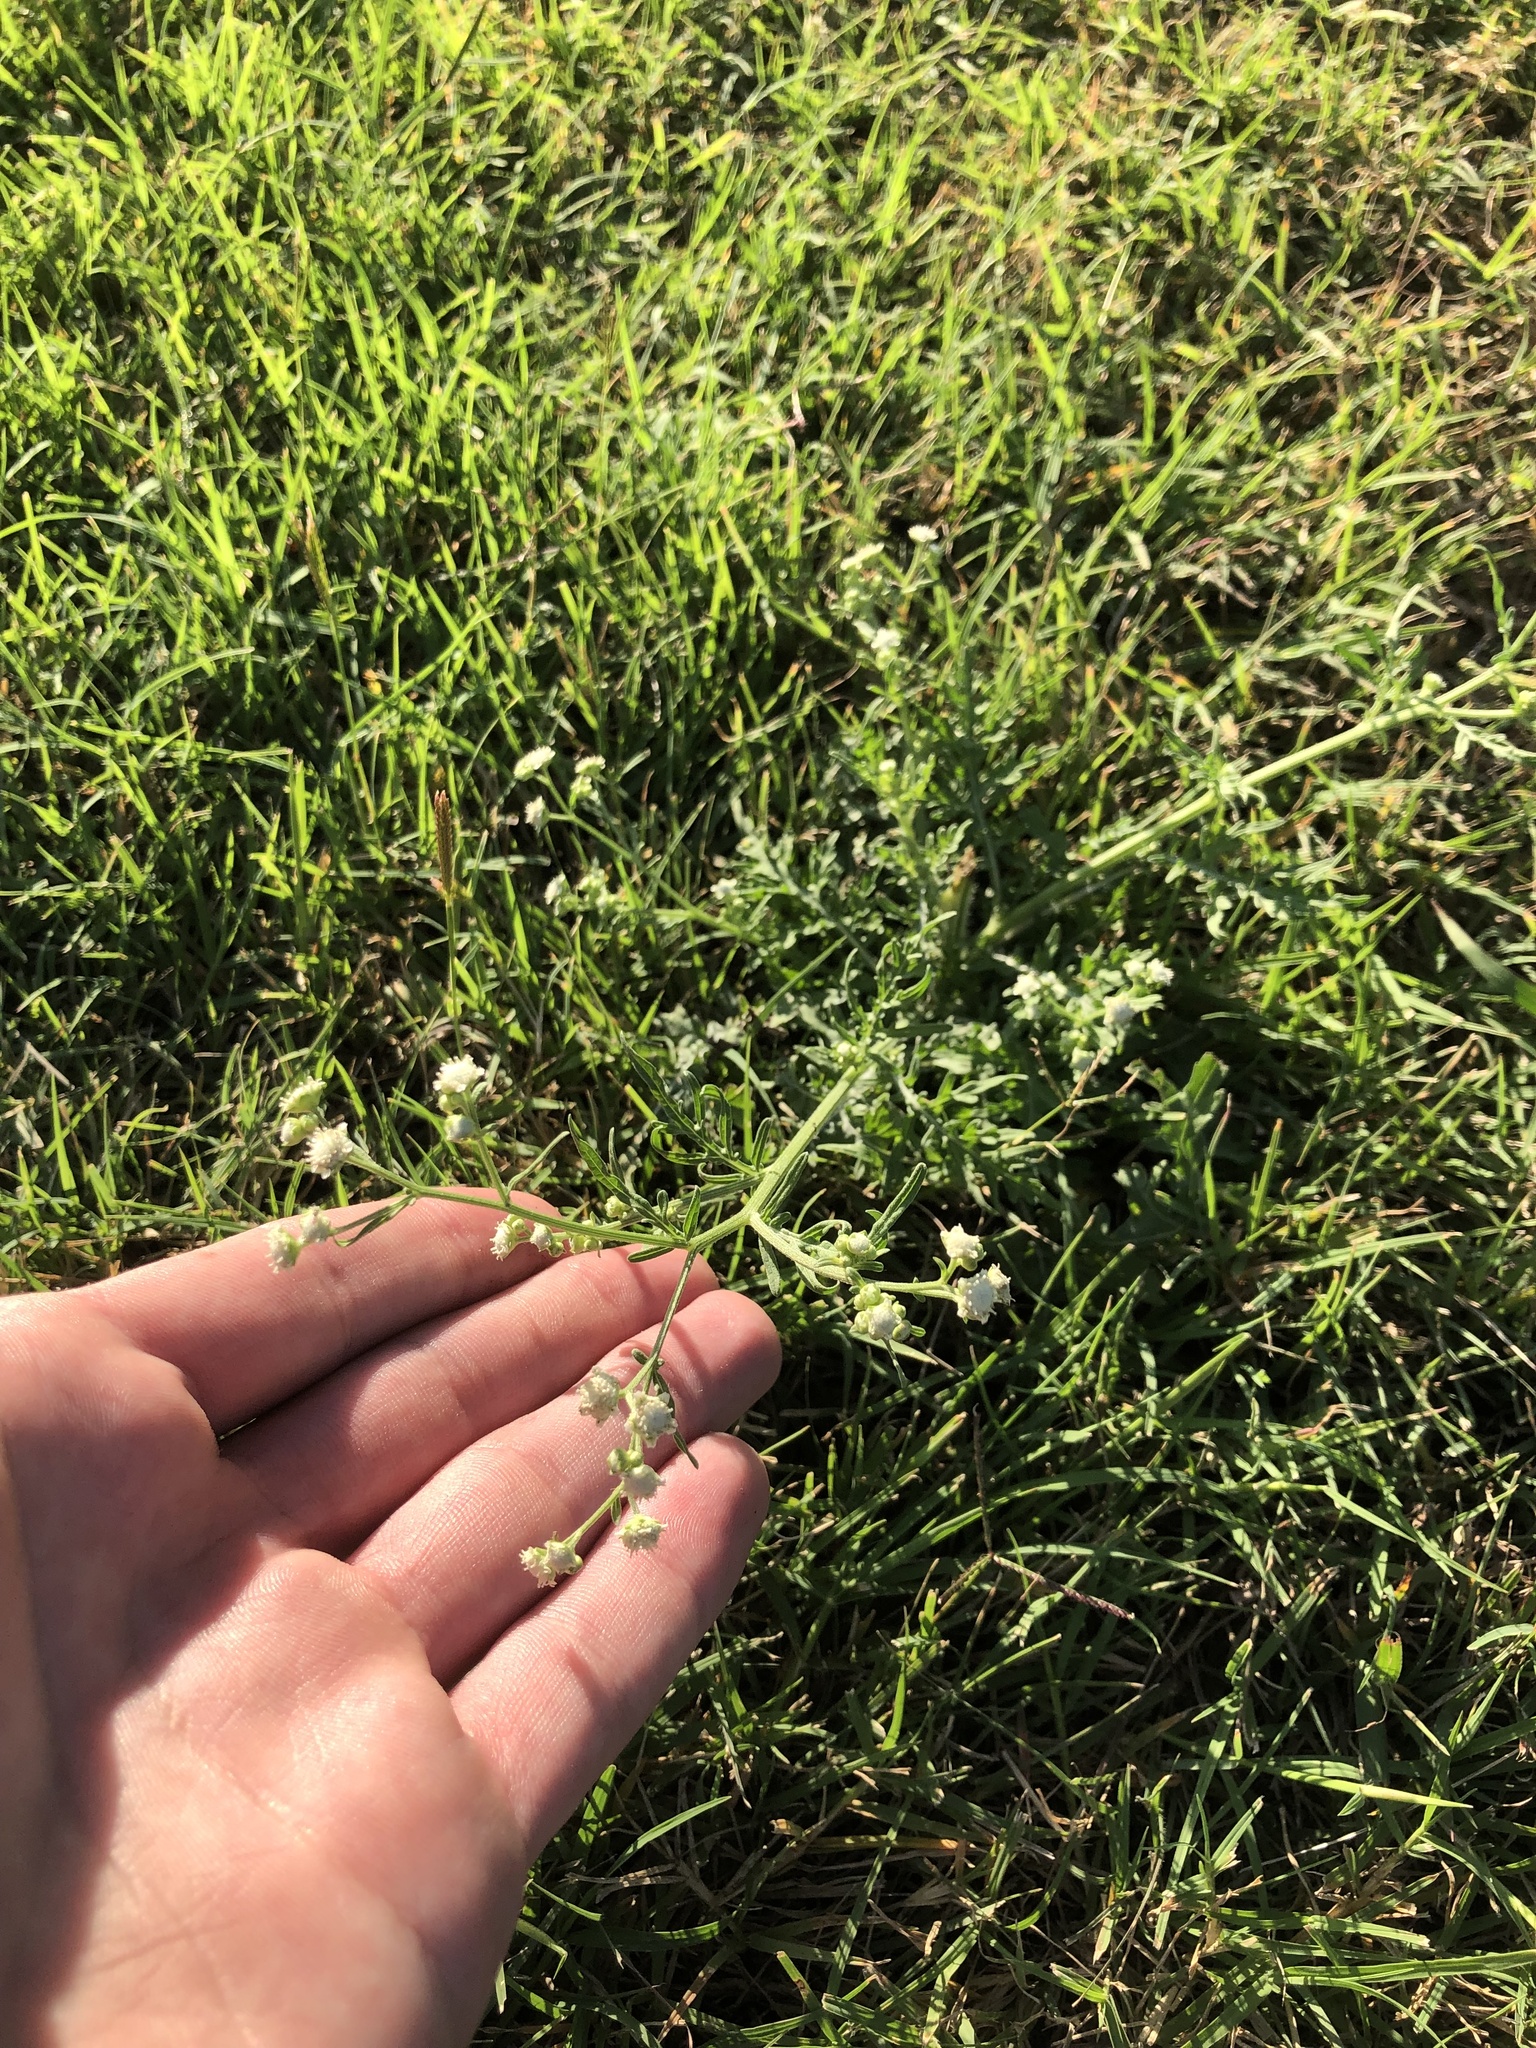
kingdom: Plantae
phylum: Tracheophyta
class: Magnoliopsida
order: Asterales
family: Asteraceae
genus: Parthenium
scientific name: Parthenium hysterophorus
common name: Santa maria feverfew
